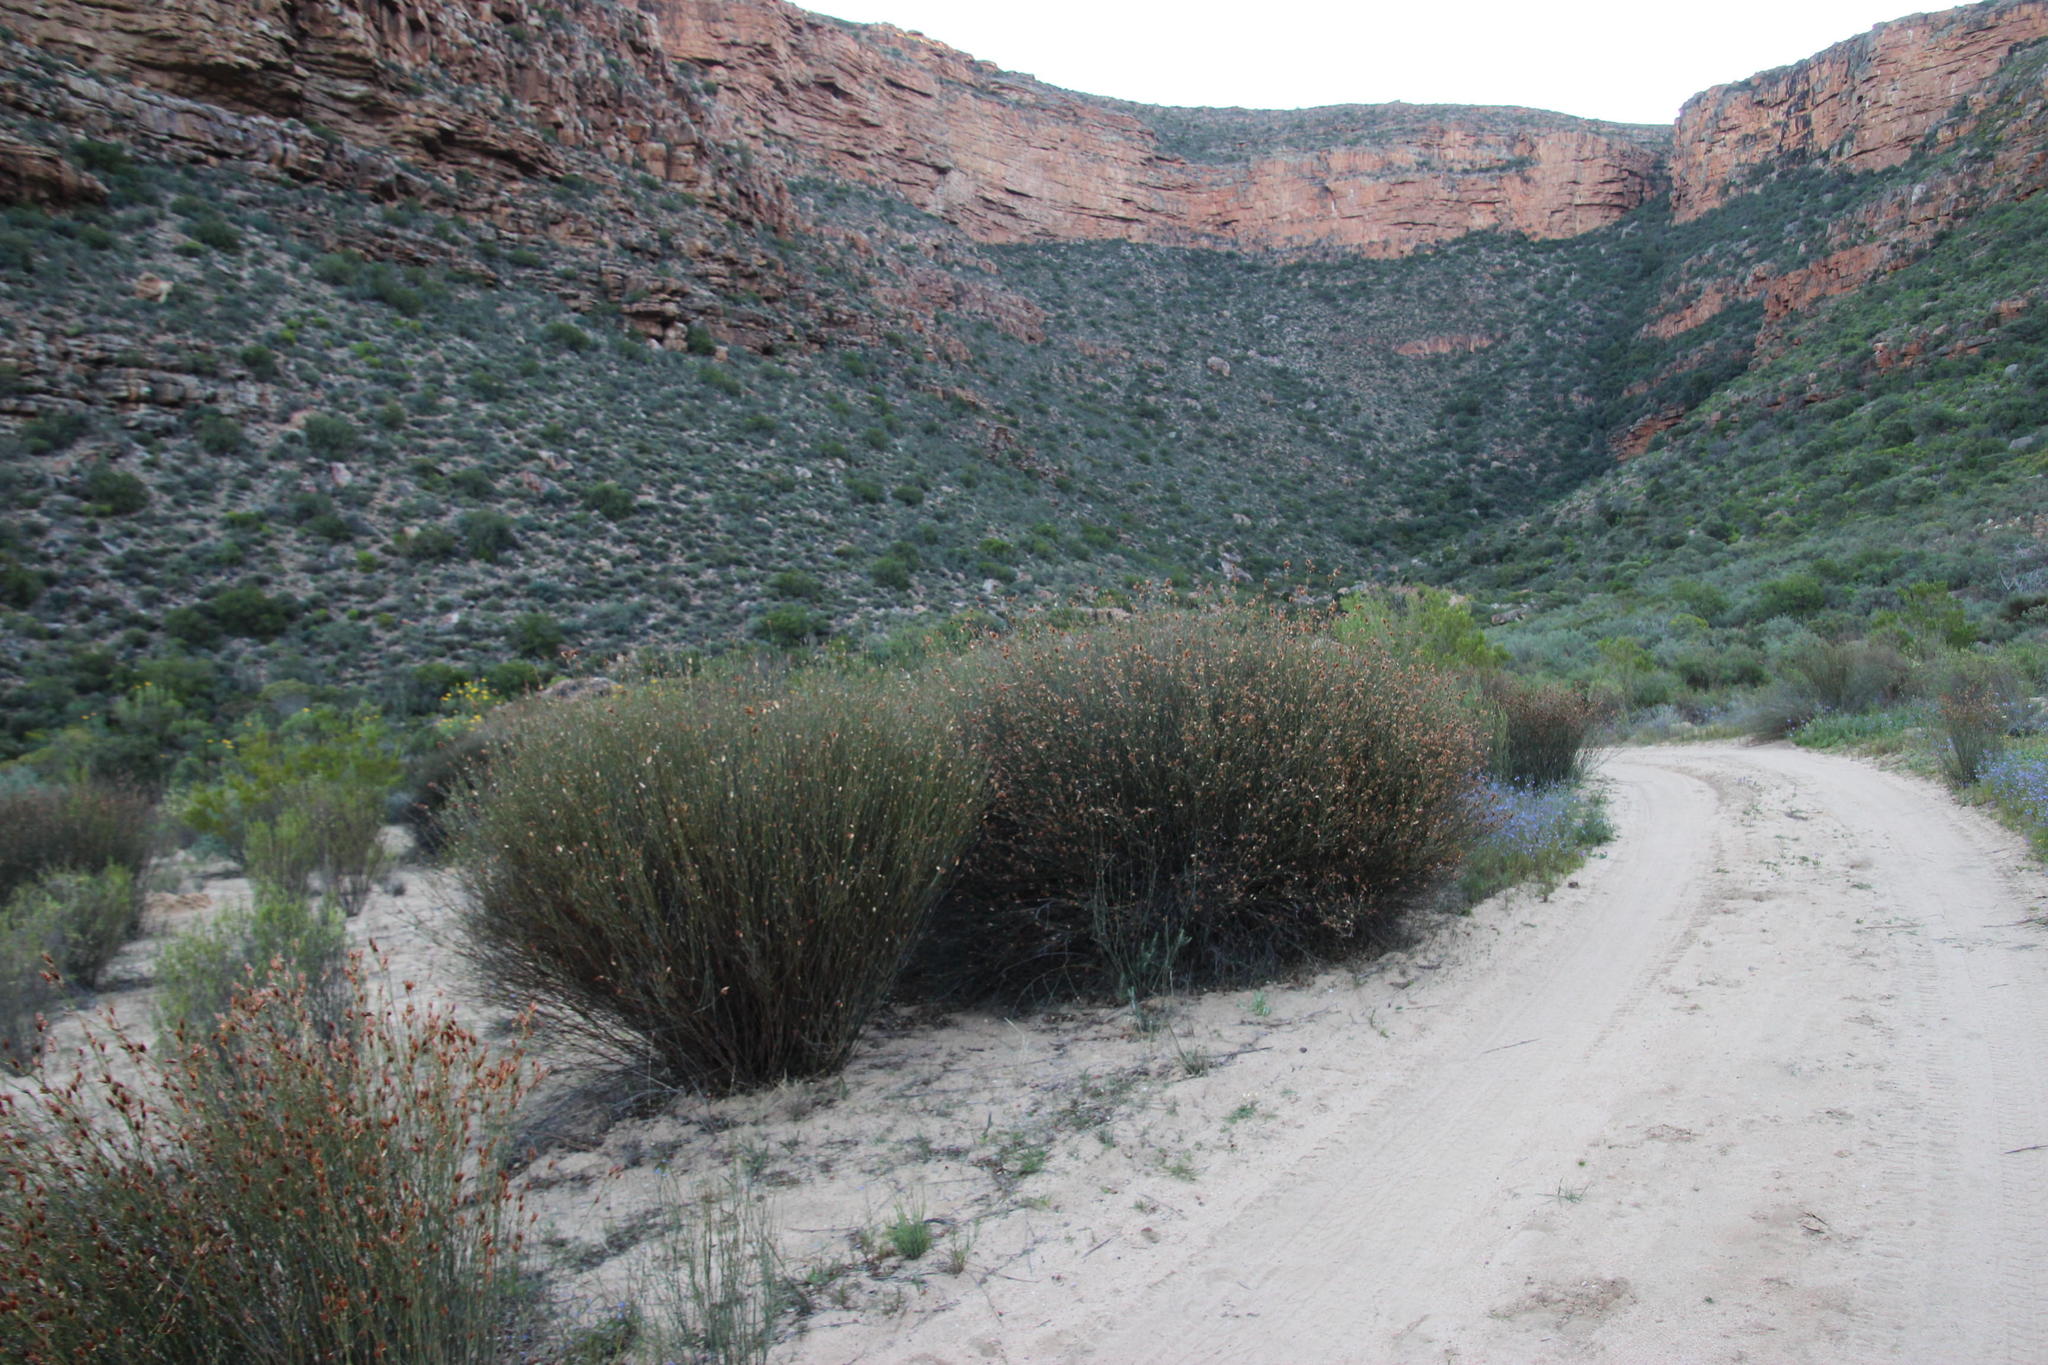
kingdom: Plantae
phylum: Tracheophyta
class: Liliopsida
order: Poales
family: Restionaceae
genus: Willdenowia
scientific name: Willdenowia incurvata
